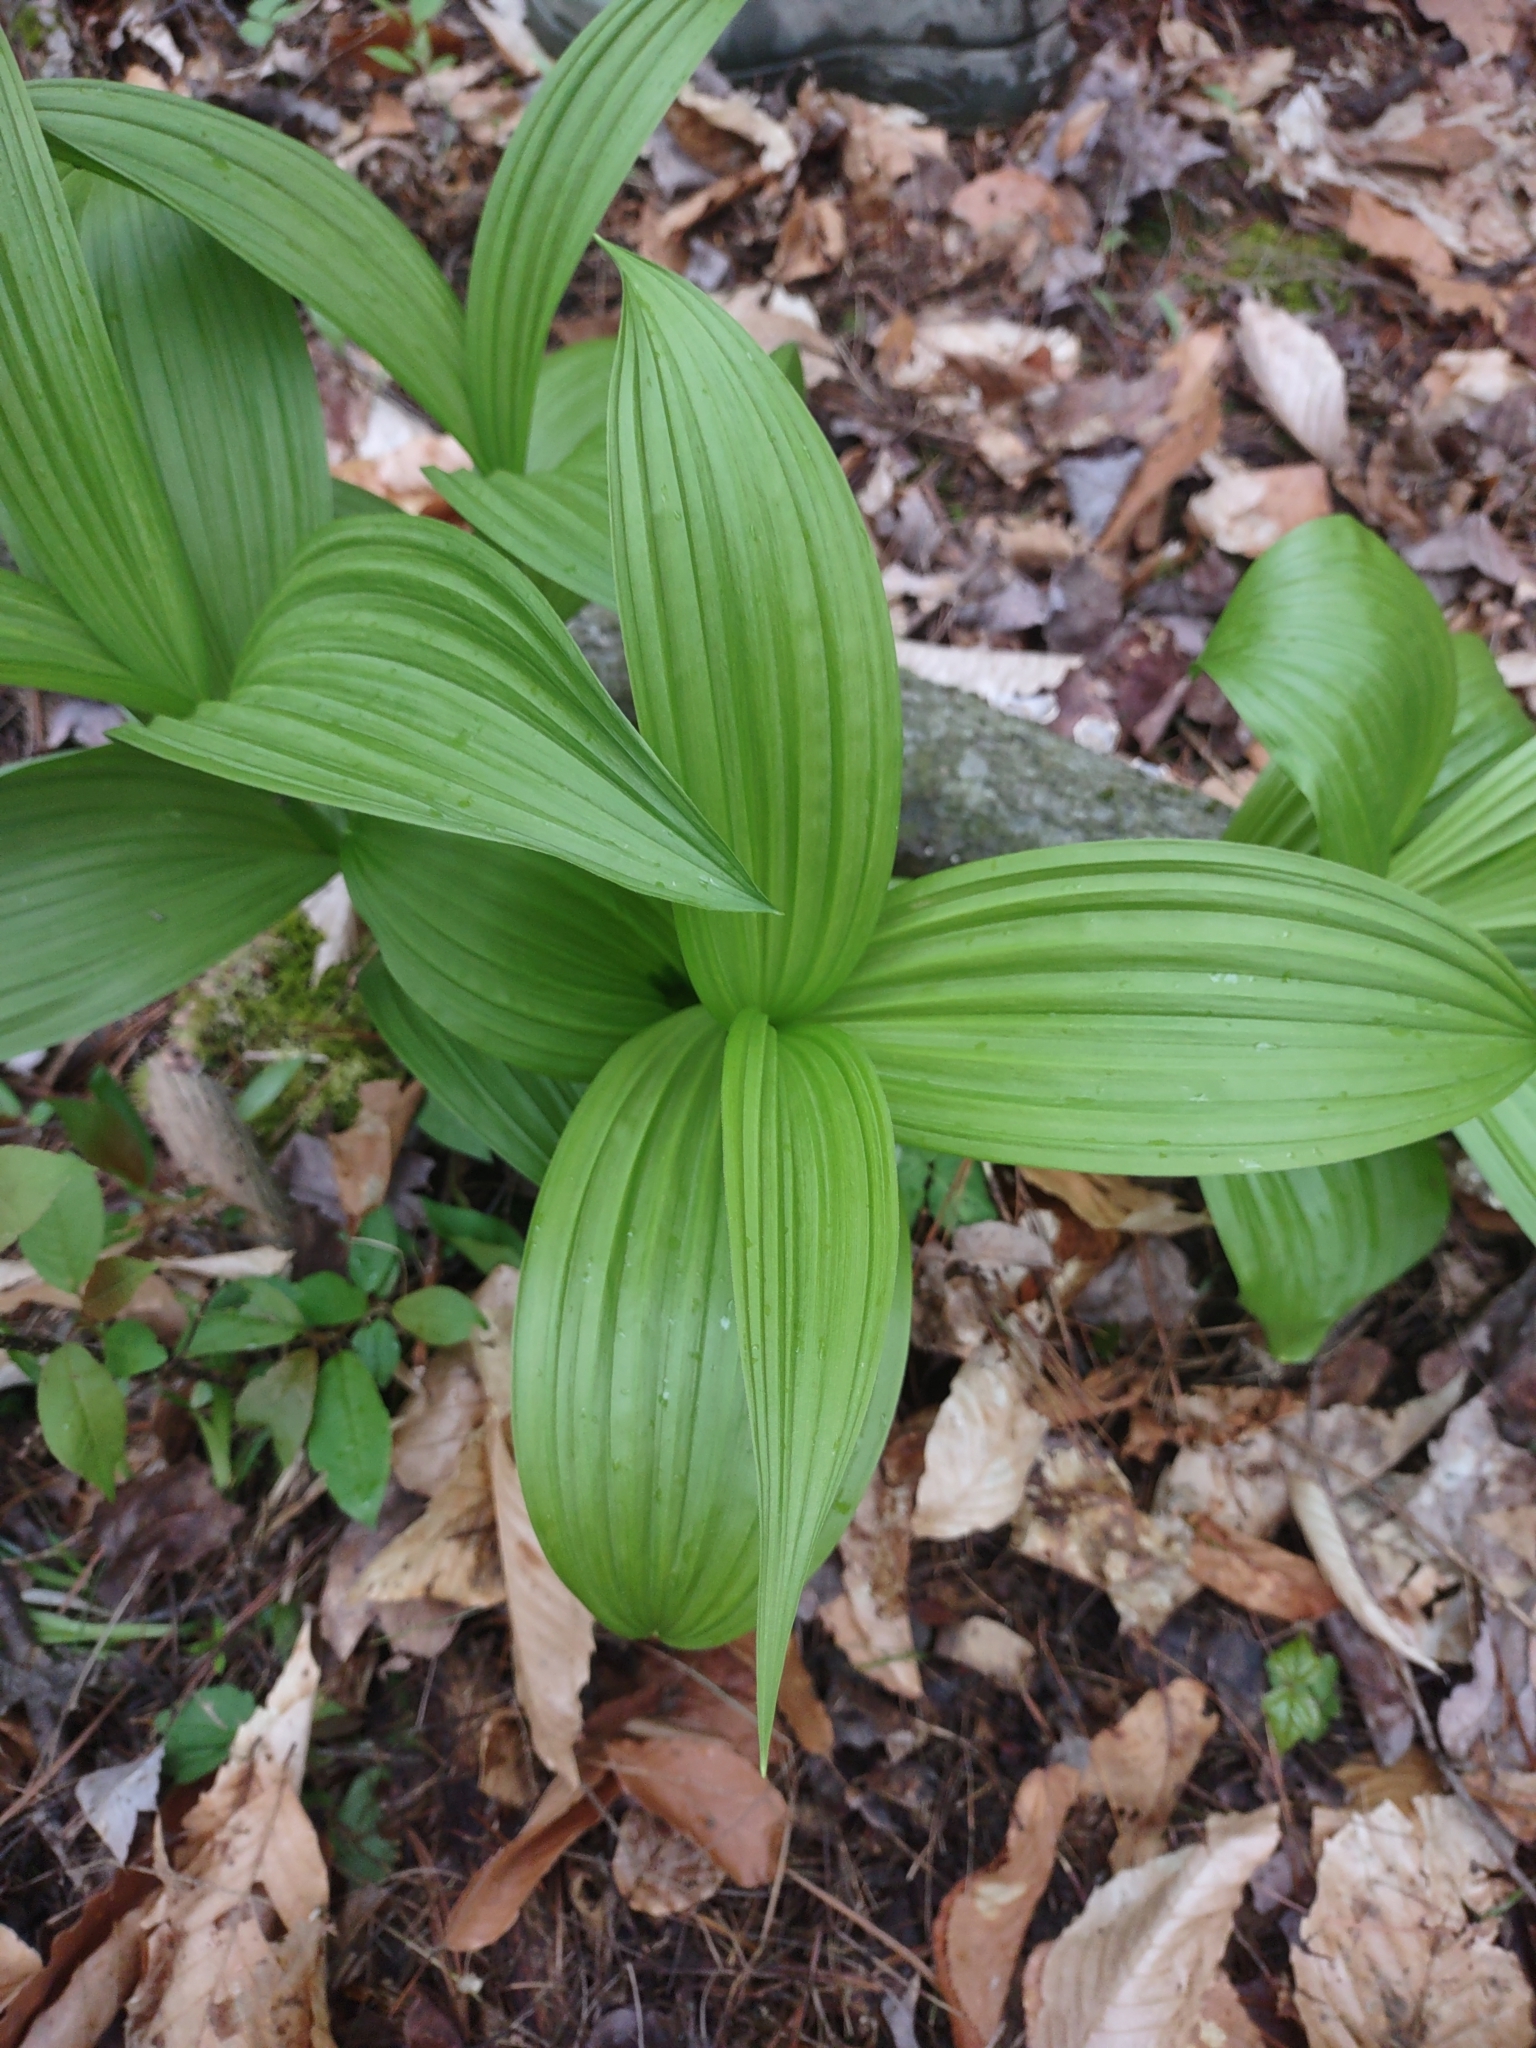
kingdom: Plantae
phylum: Tracheophyta
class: Liliopsida
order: Liliales
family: Melanthiaceae
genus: Veratrum
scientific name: Veratrum viride
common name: American false hellebore
